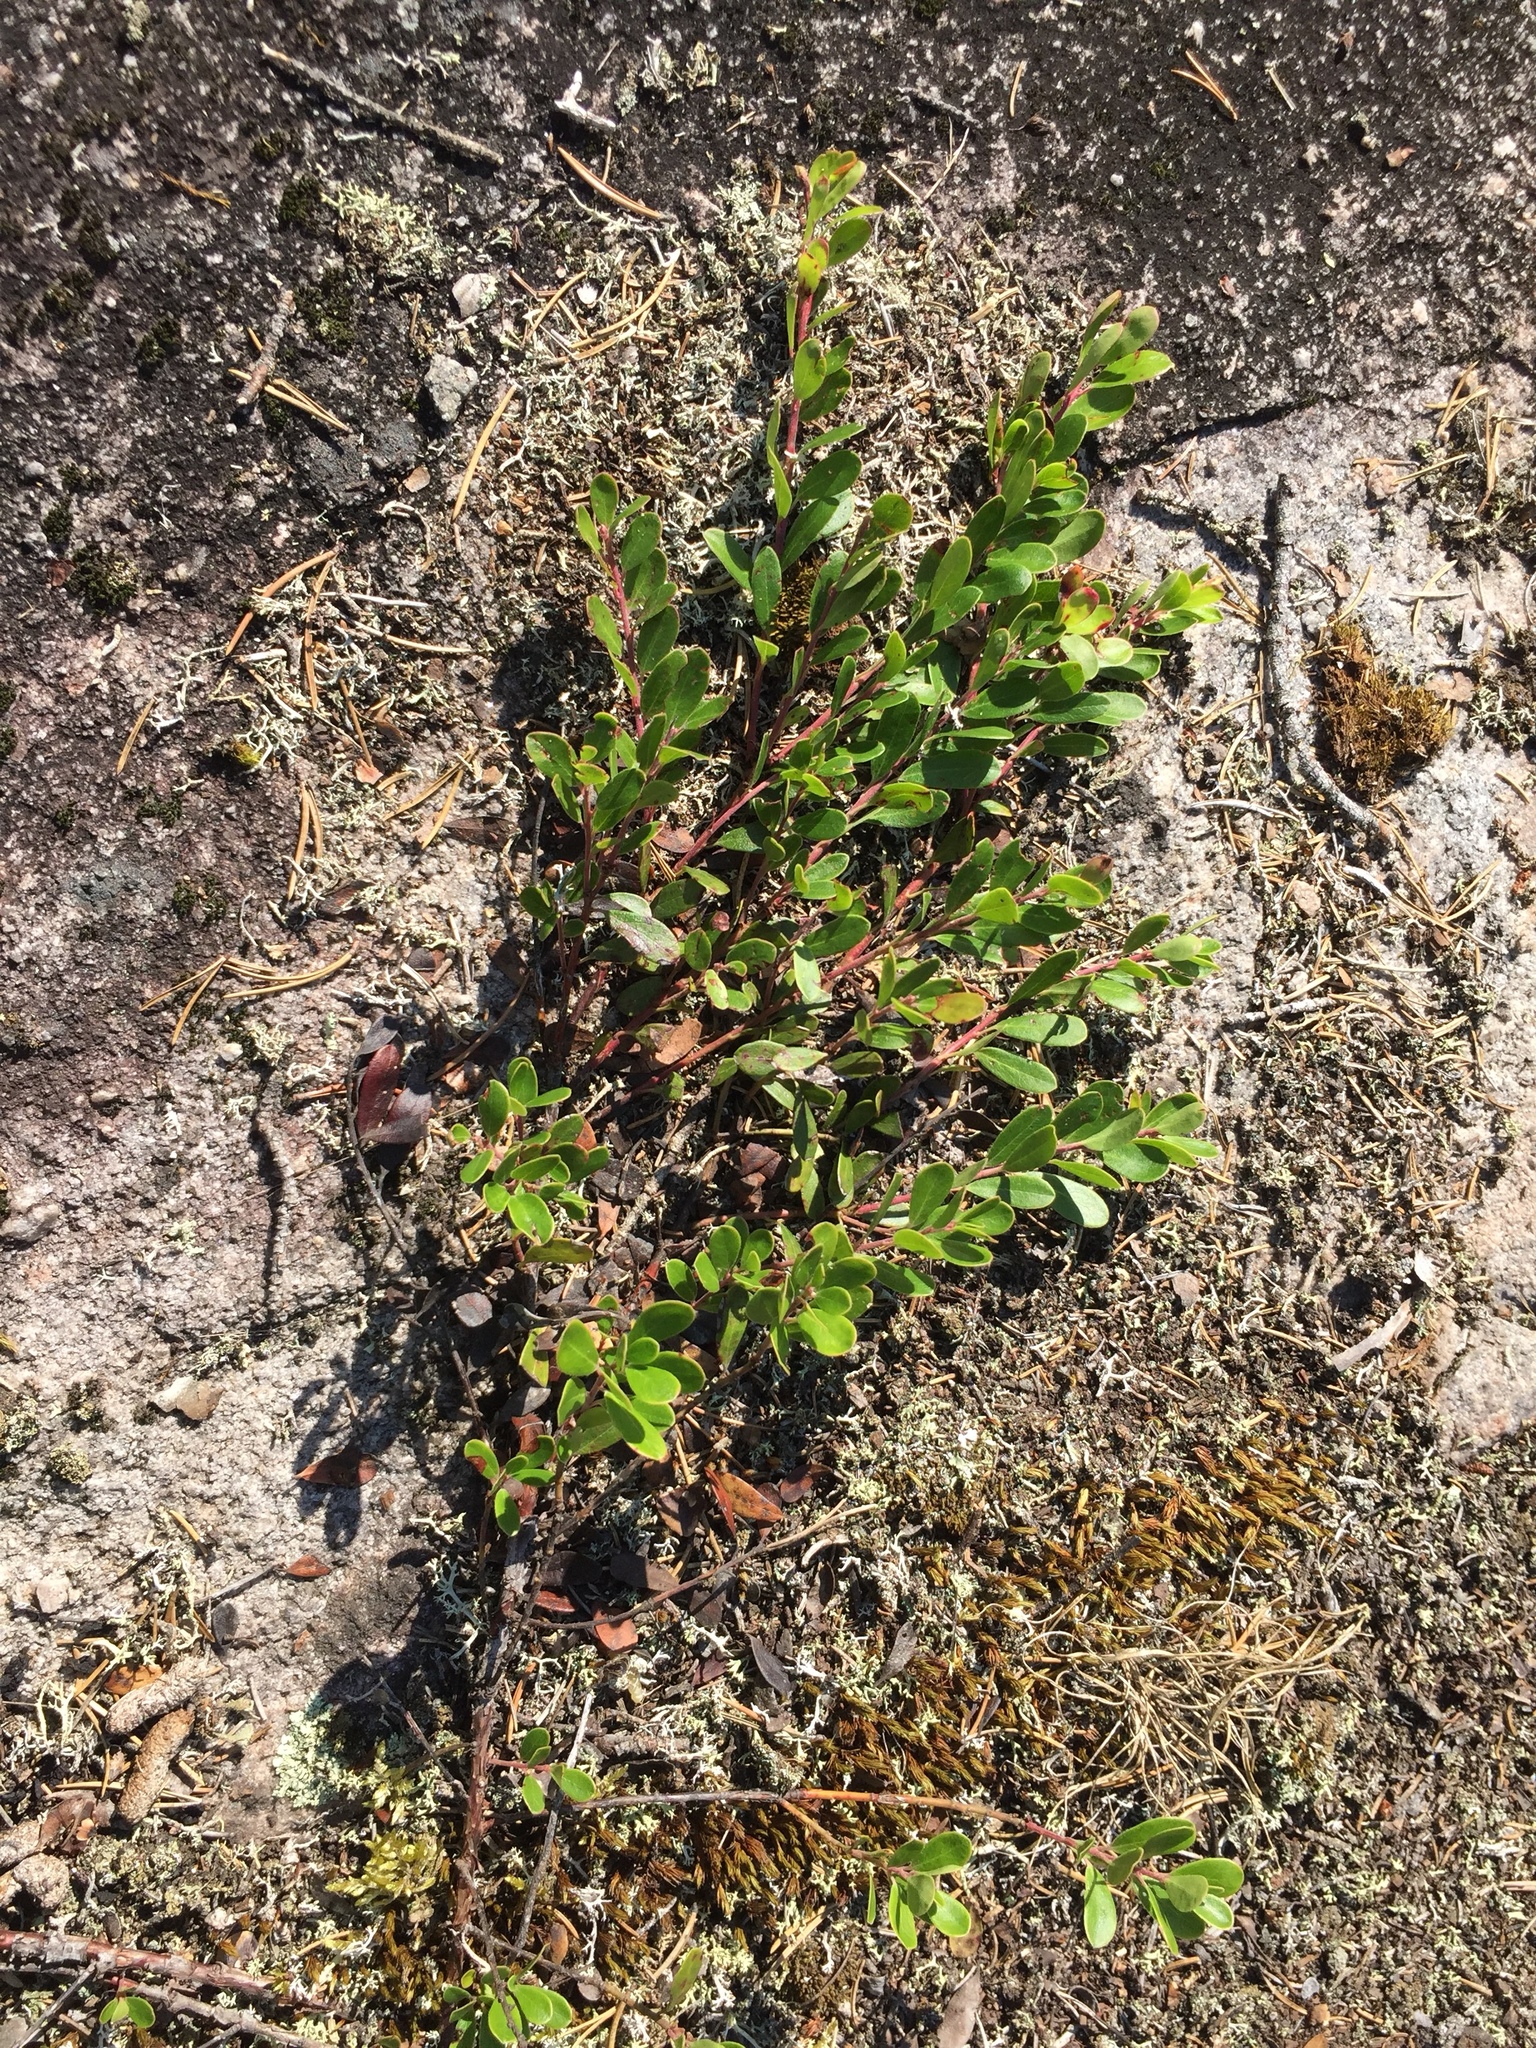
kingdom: Plantae
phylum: Tracheophyta
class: Magnoliopsida
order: Ericales
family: Ericaceae
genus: Arctostaphylos
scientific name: Arctostaphylos uva-ursi
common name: Bearberry
